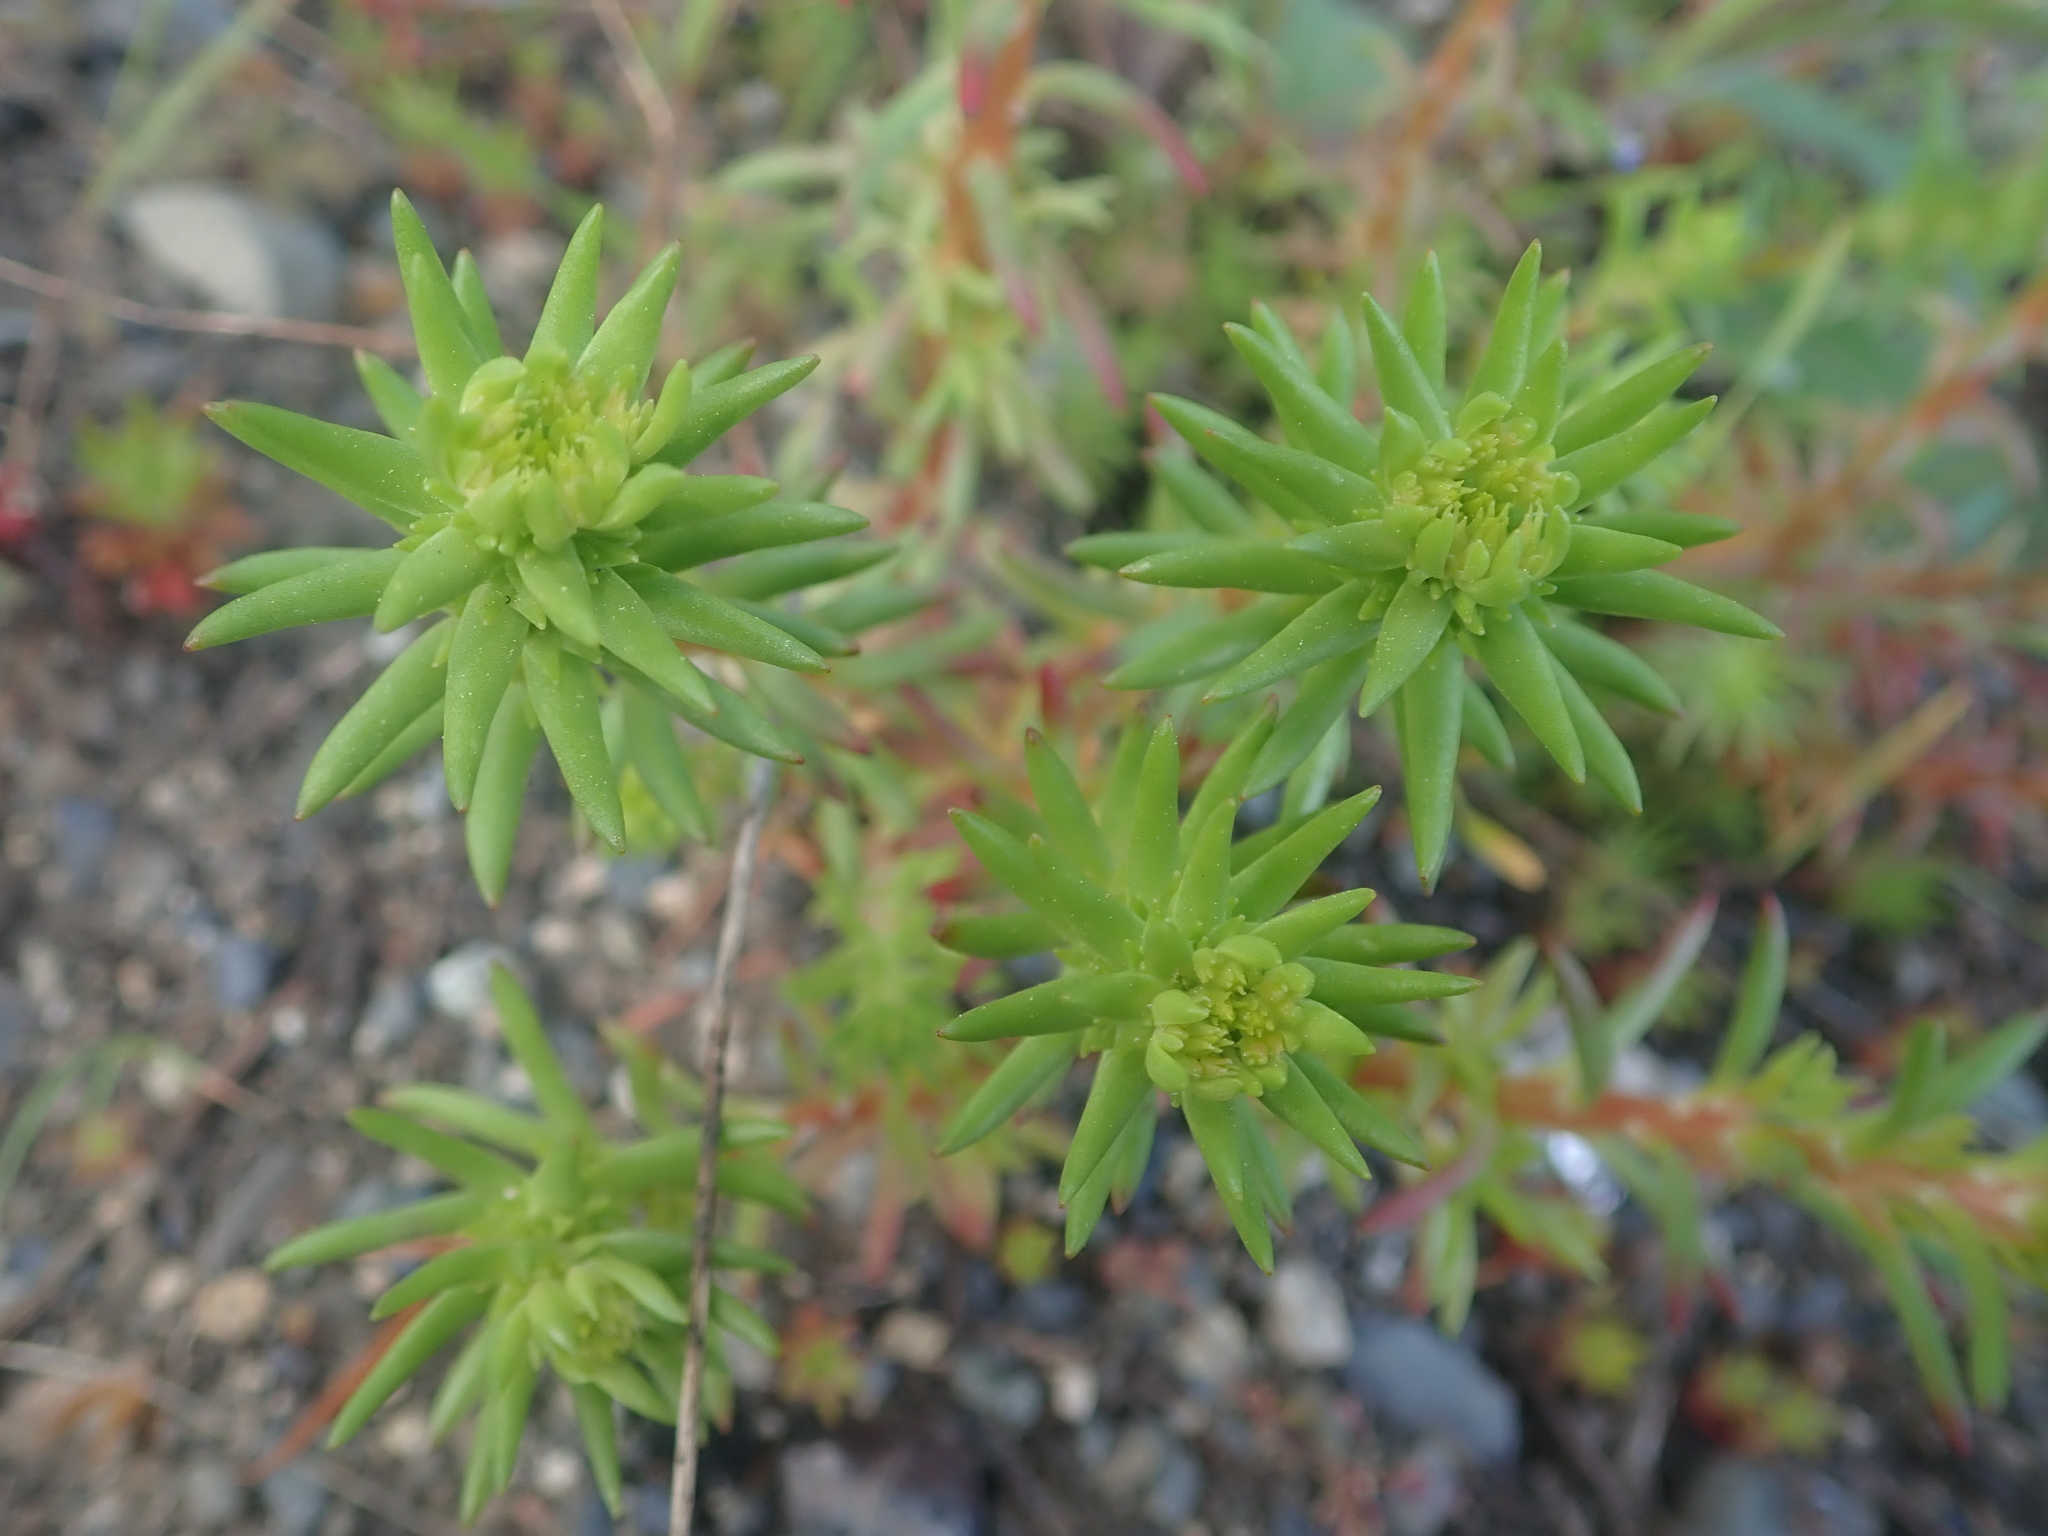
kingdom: Plantae
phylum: Tracheophyta
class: Magnoliopsida
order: Saxifragales
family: Crassulaceae
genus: Sedum
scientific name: Sedum stenopetalum
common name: Narrow-petaled stonecrop
